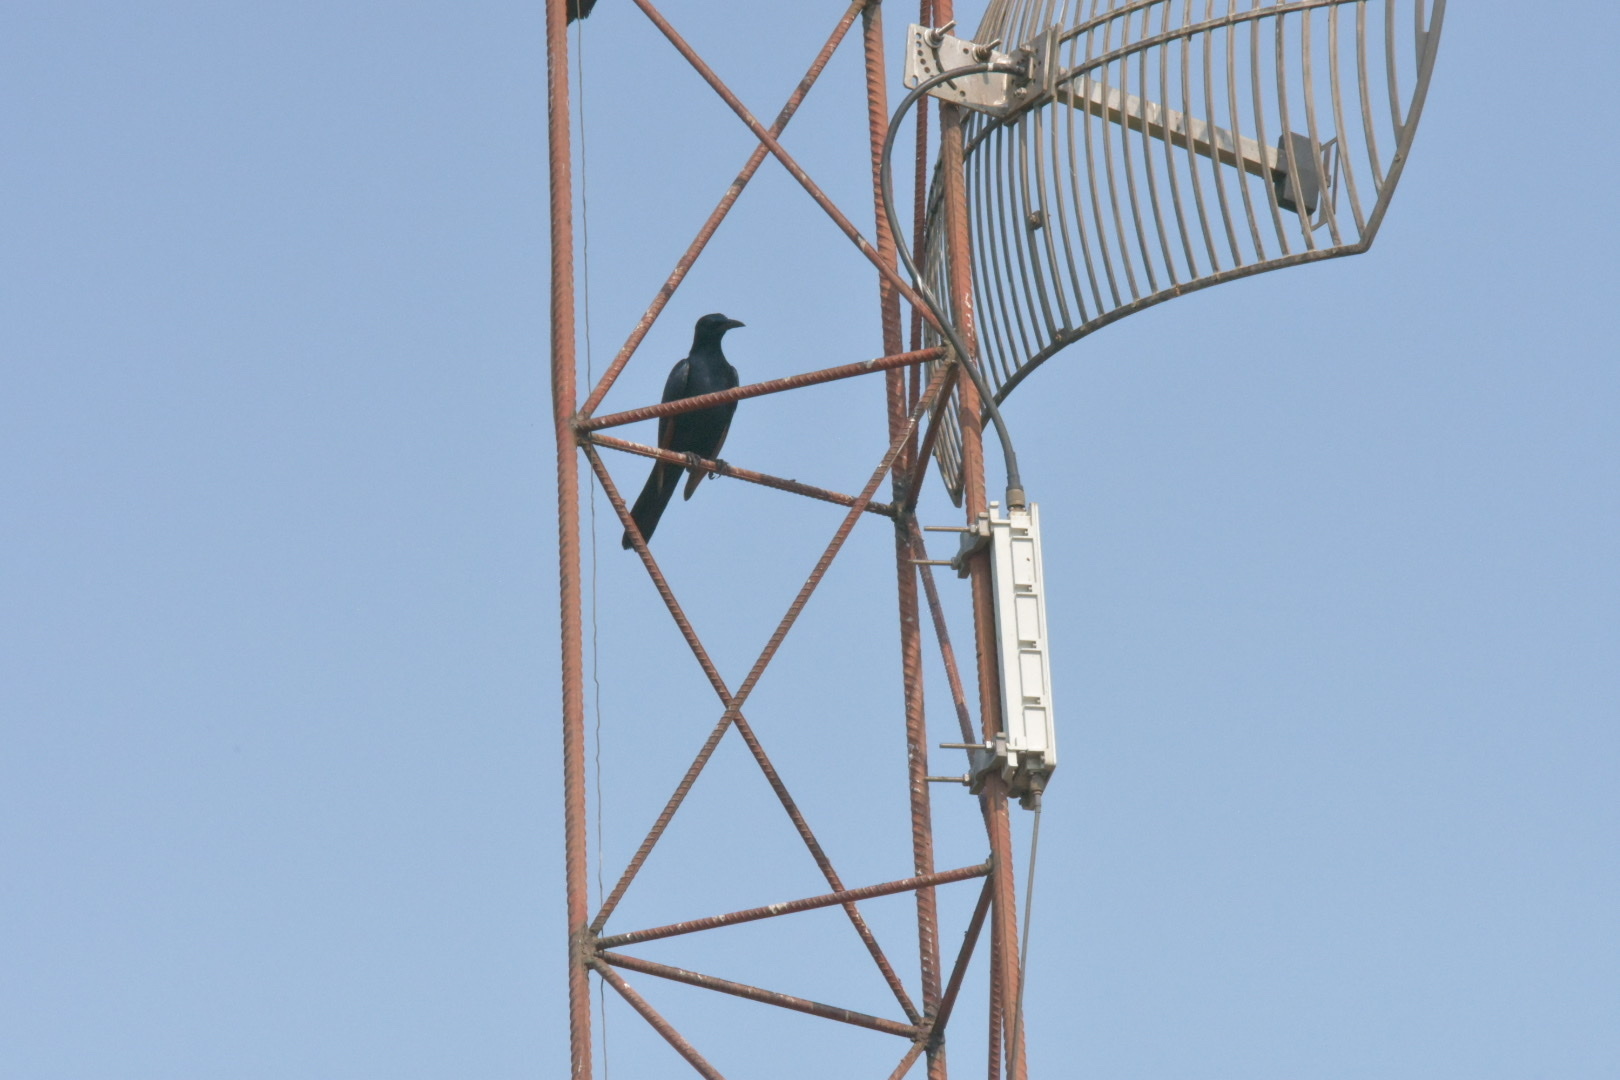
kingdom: Animalia
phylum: Chordata
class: Aves
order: Passeriformes
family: Sturnidae
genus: Onychognathus
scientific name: Onychognathus morio
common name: Red-winged starling
